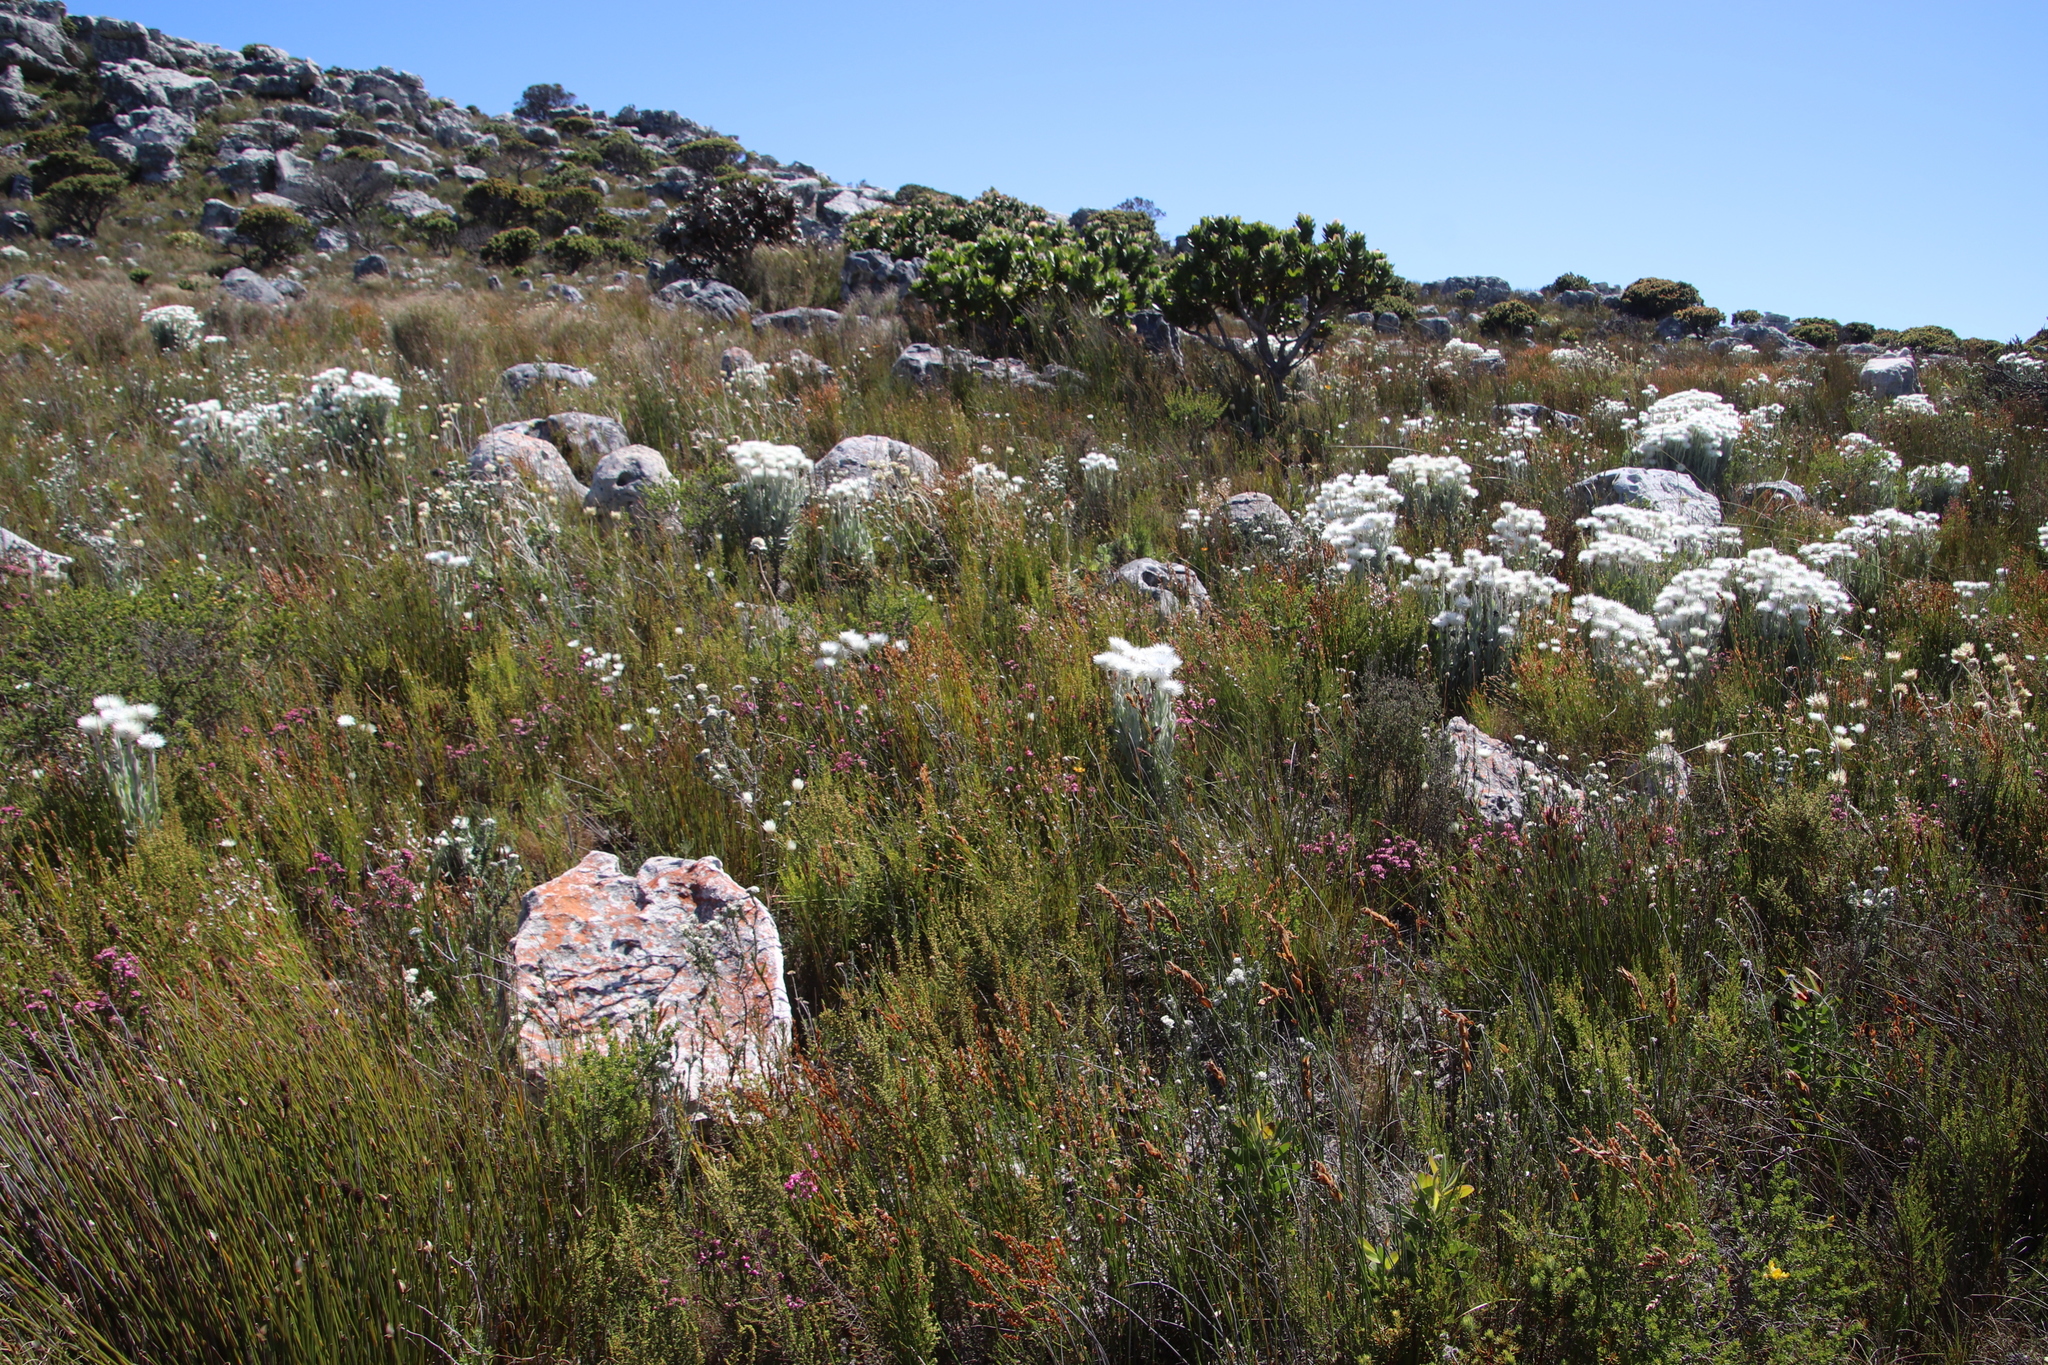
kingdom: Plantae
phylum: Tracheophyta
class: Magnoliopsida
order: Asterales
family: Asteraceae
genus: Syncarpha
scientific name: Syncarpha vestita
